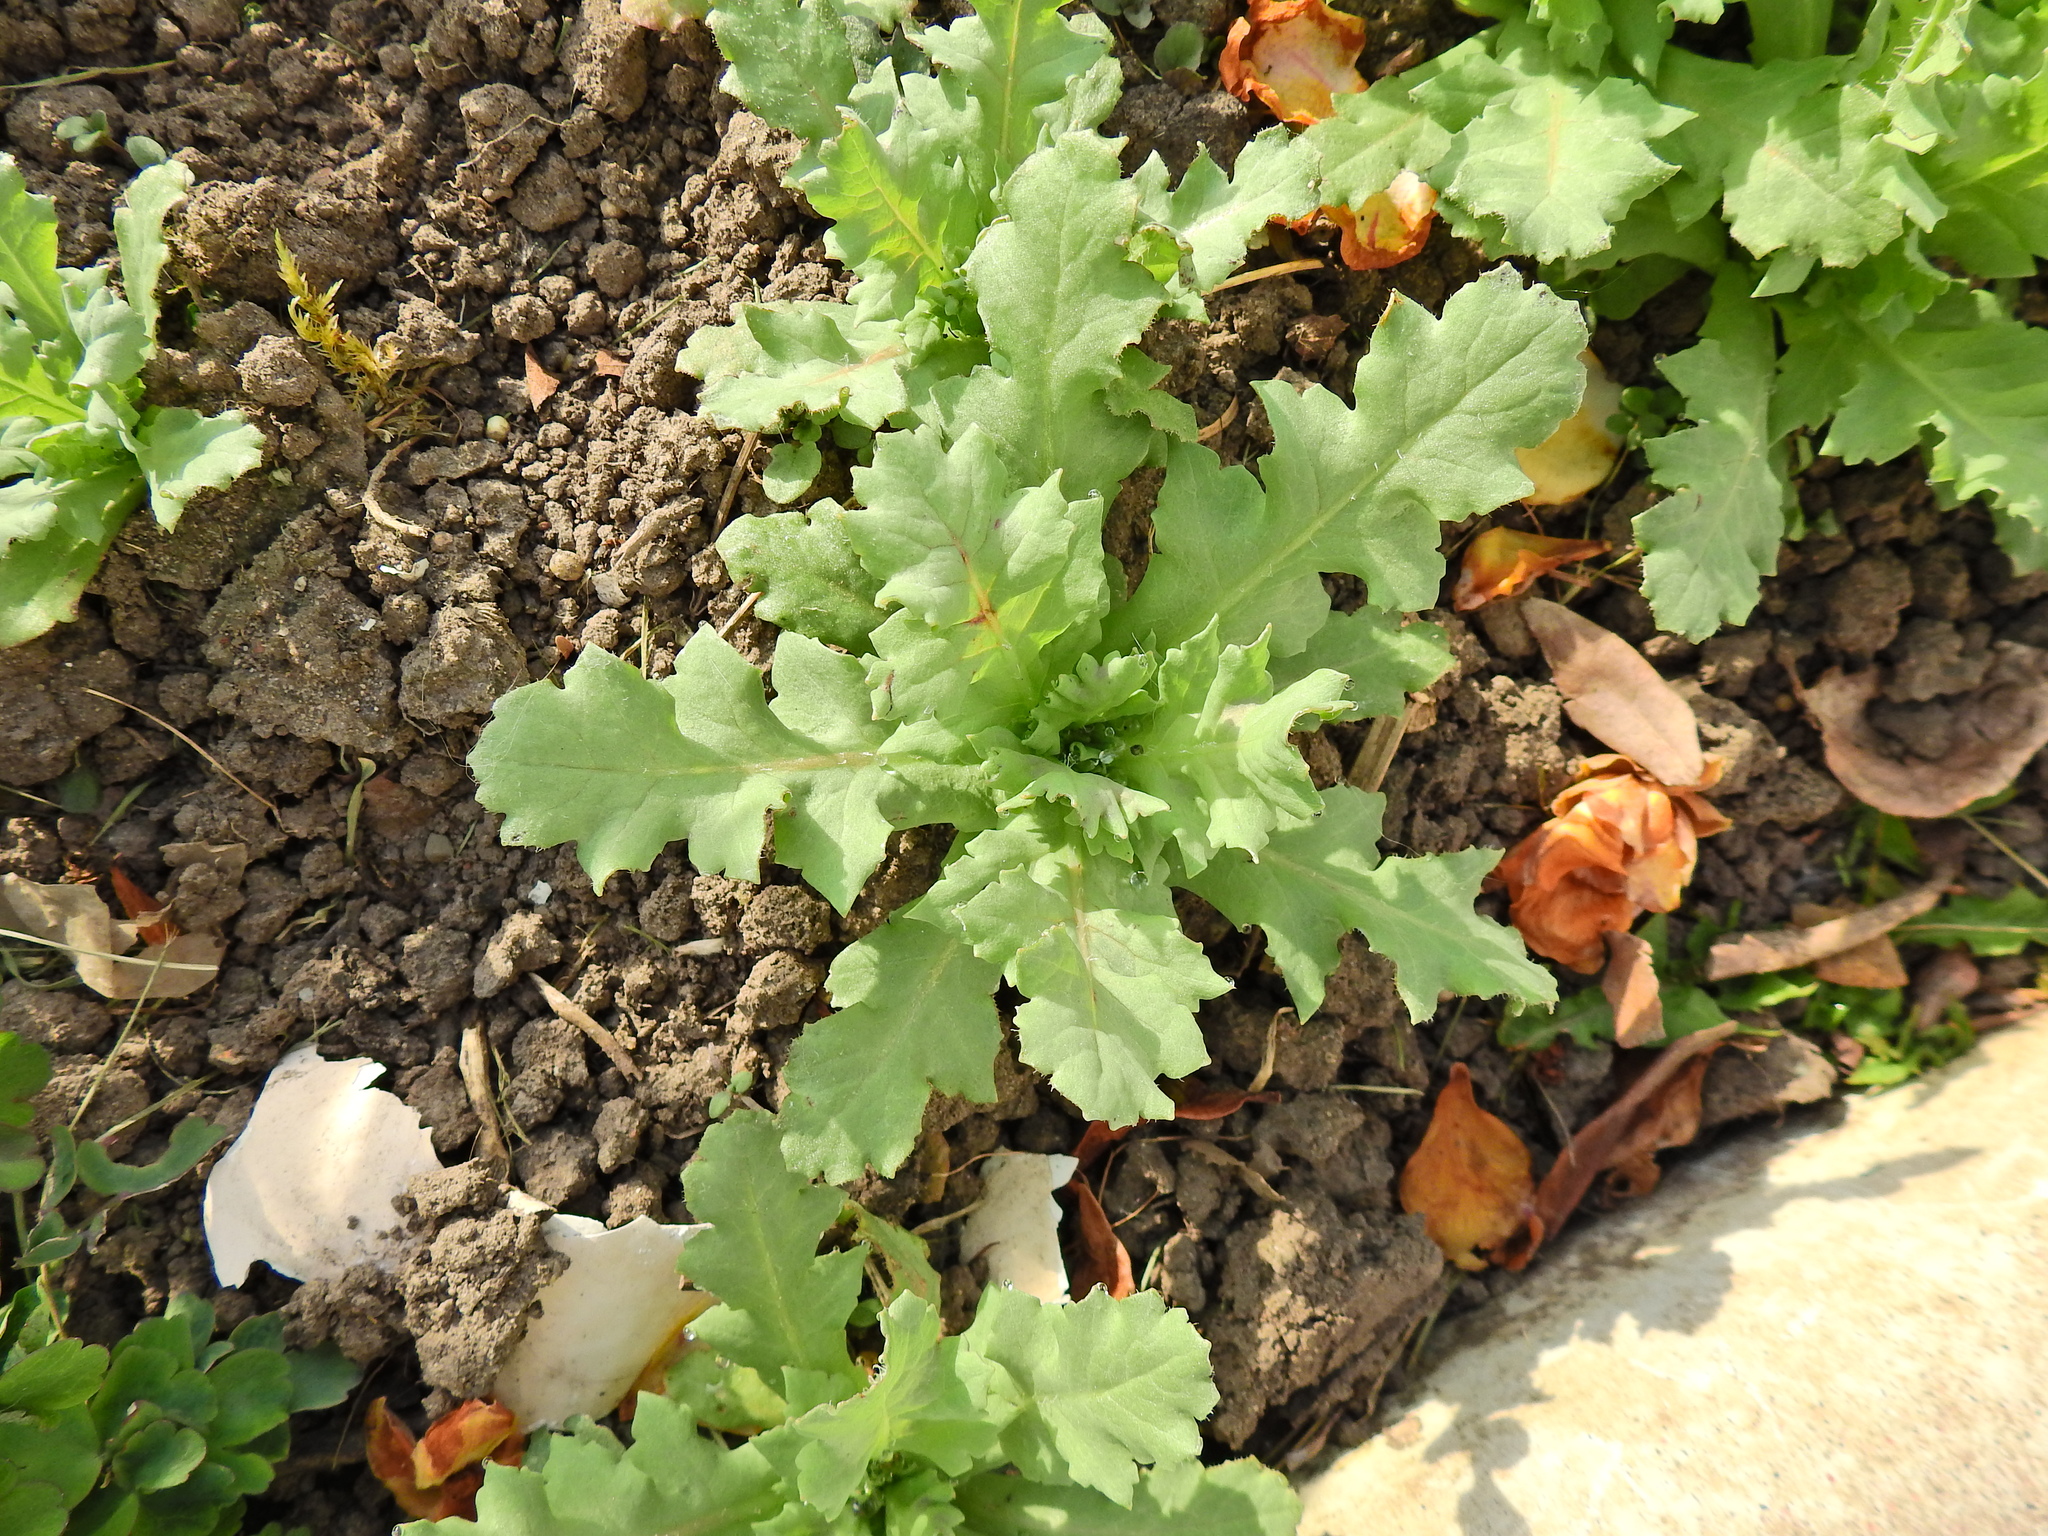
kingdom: Plantae
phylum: Tracheophyta
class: Magnoliopsida
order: Ranunculales
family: Papaveraceae
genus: Papaver
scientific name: Papaver somniferum
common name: Opium poppy
